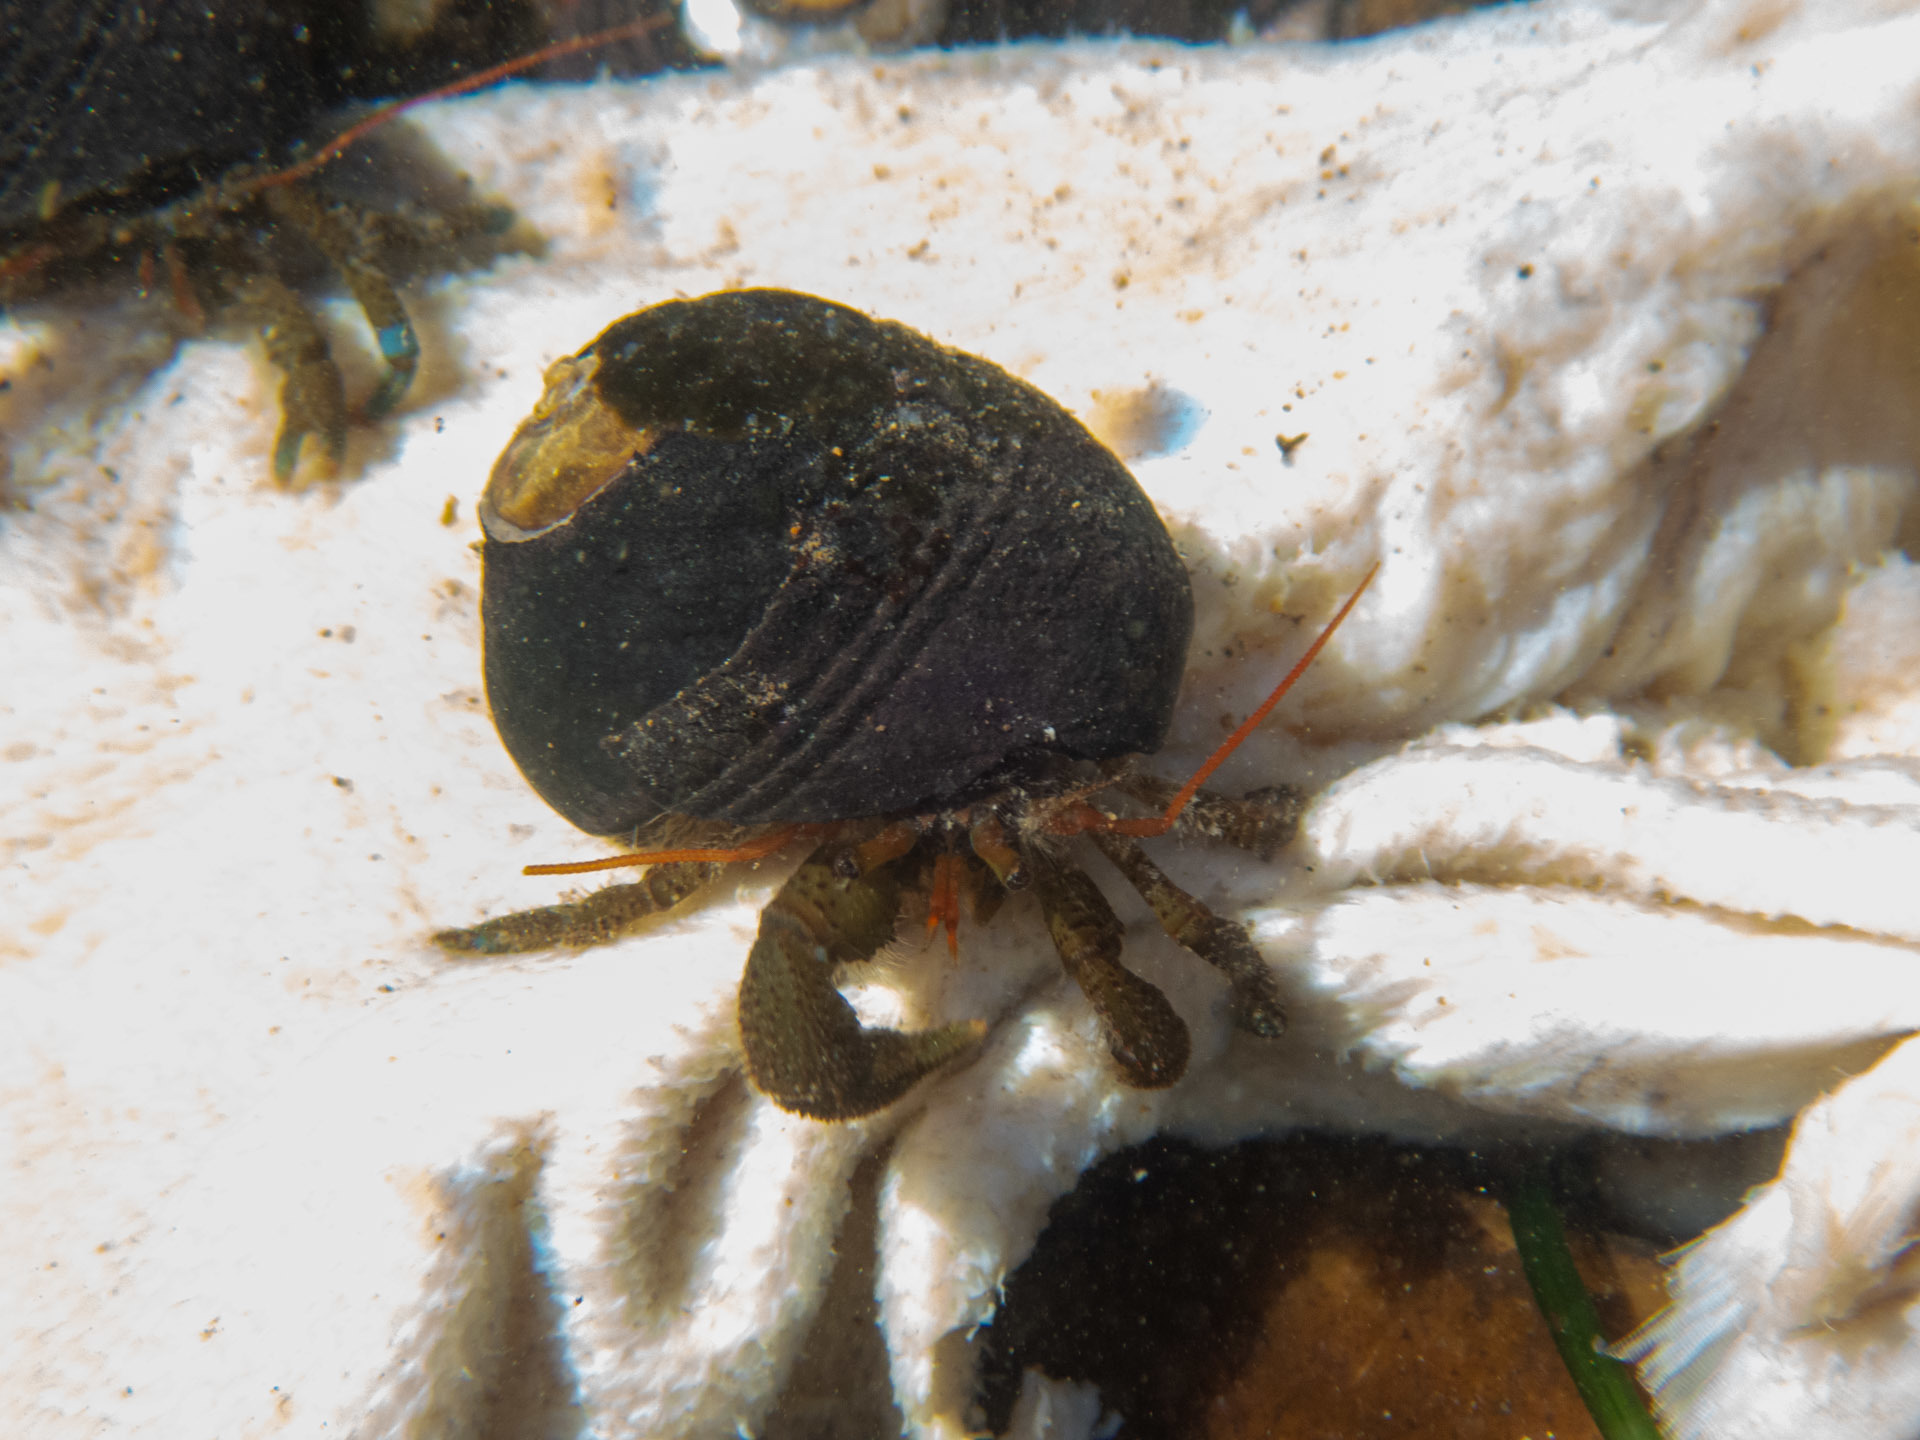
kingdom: Animalia
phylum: Arthropoda
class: Malacostraca
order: Decapoda
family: Paguridae
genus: Pagurus
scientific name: Pagurus samuelis
